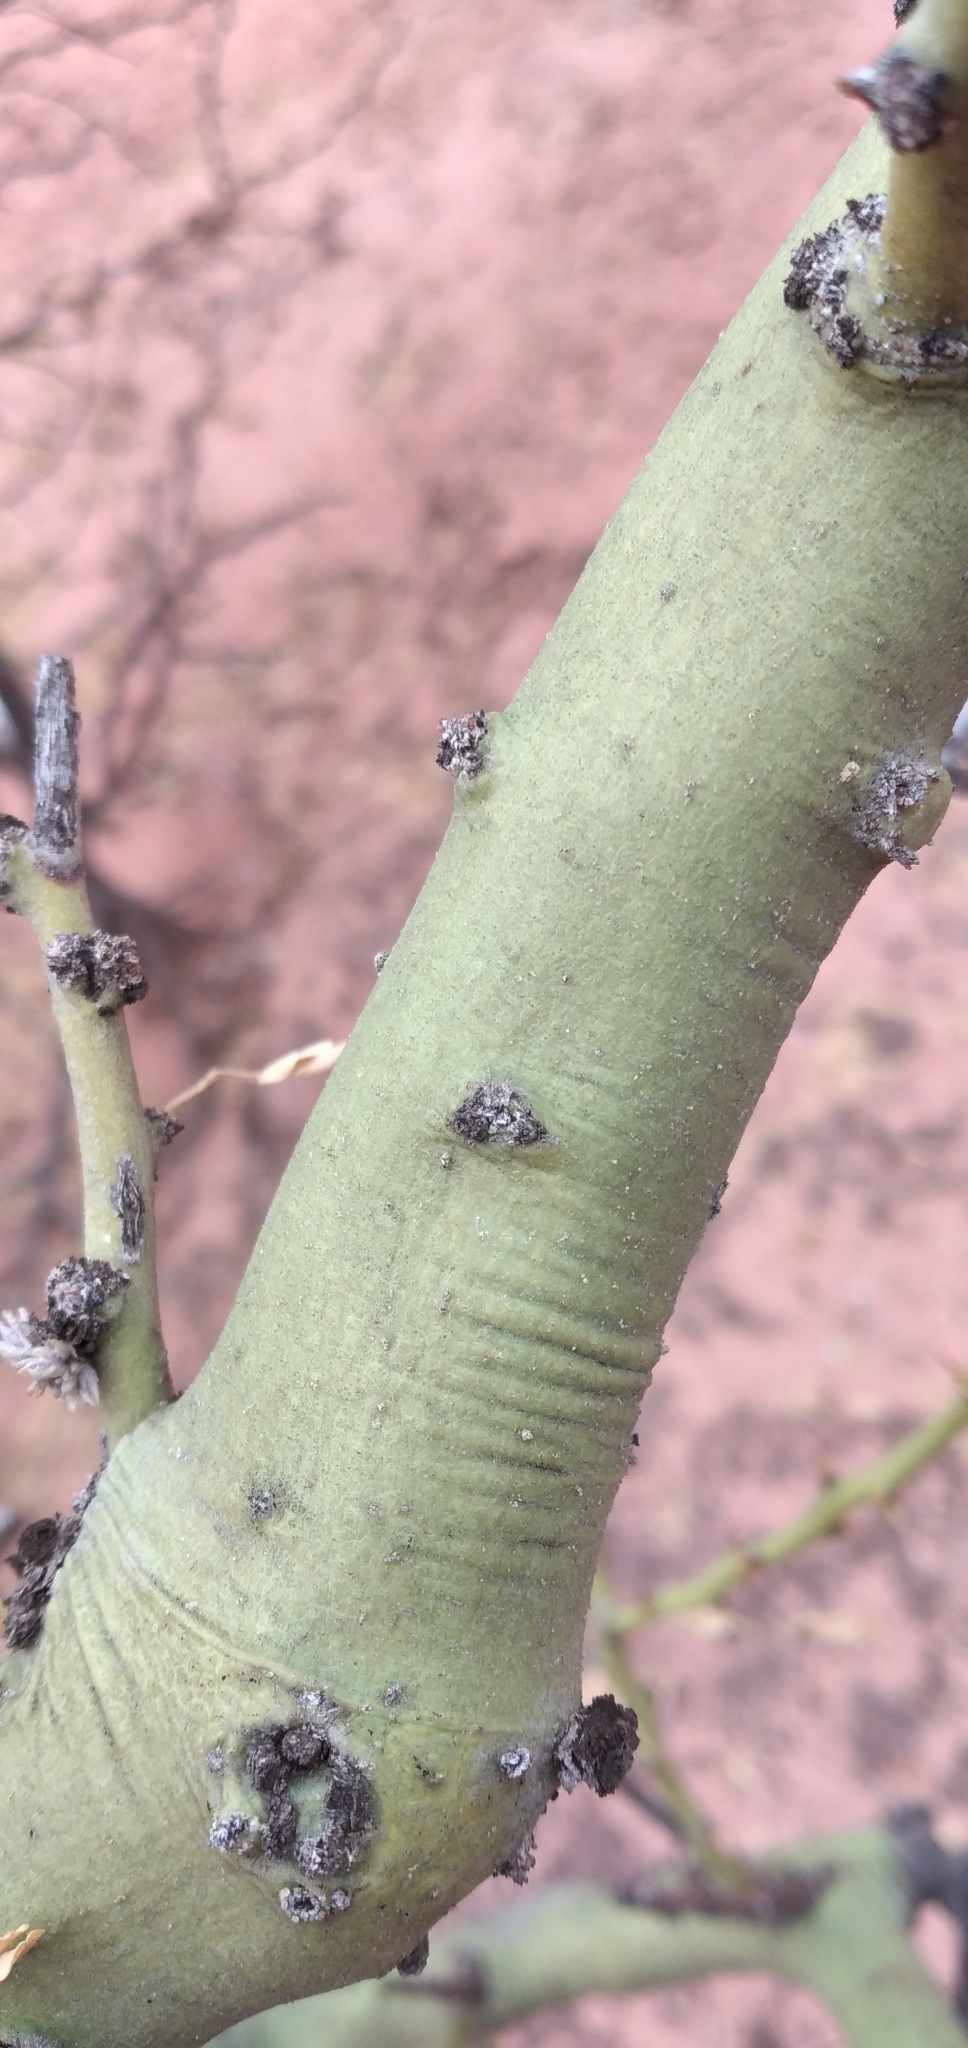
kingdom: Plantae
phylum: Tracheophyta
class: Magnoliopsida
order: Fabales
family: Fabaceae
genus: Parkinsonia
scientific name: Parkinsonia praecox
